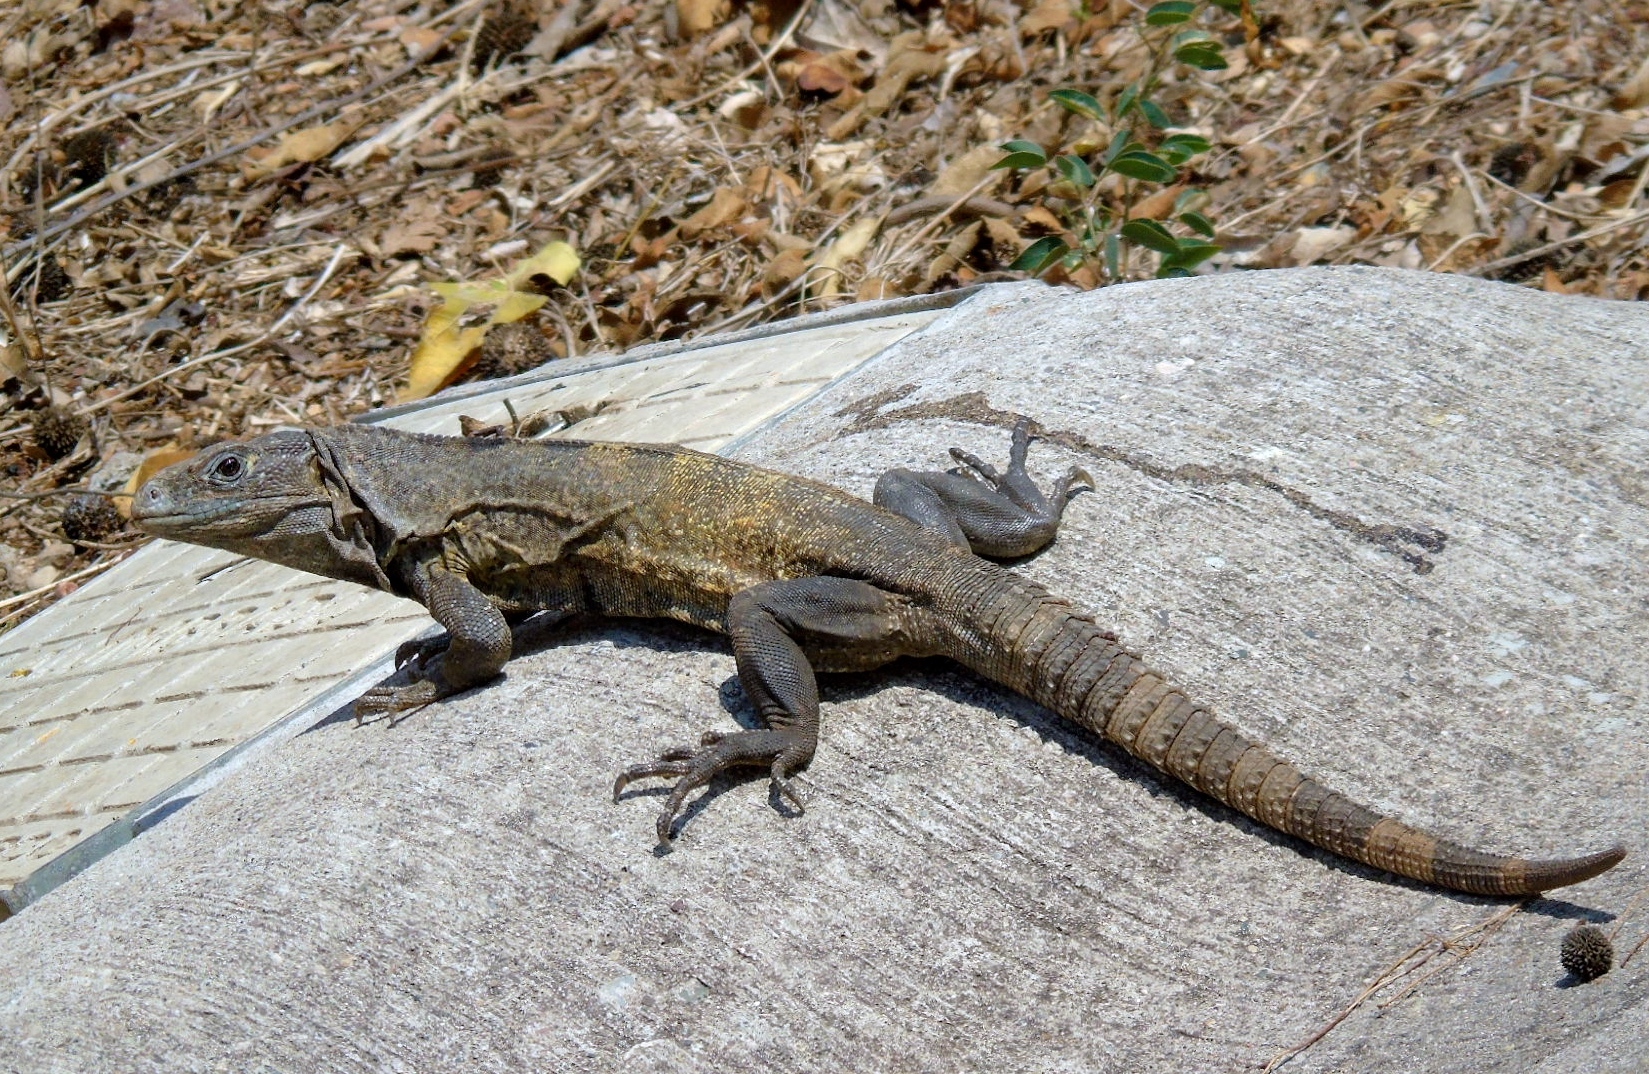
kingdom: Animalia
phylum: Chordata
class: Squamata
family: Iguanidae
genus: Ctenosaura
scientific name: Ctenosaura pectinata
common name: Guerreran spiny-tailed iguana
